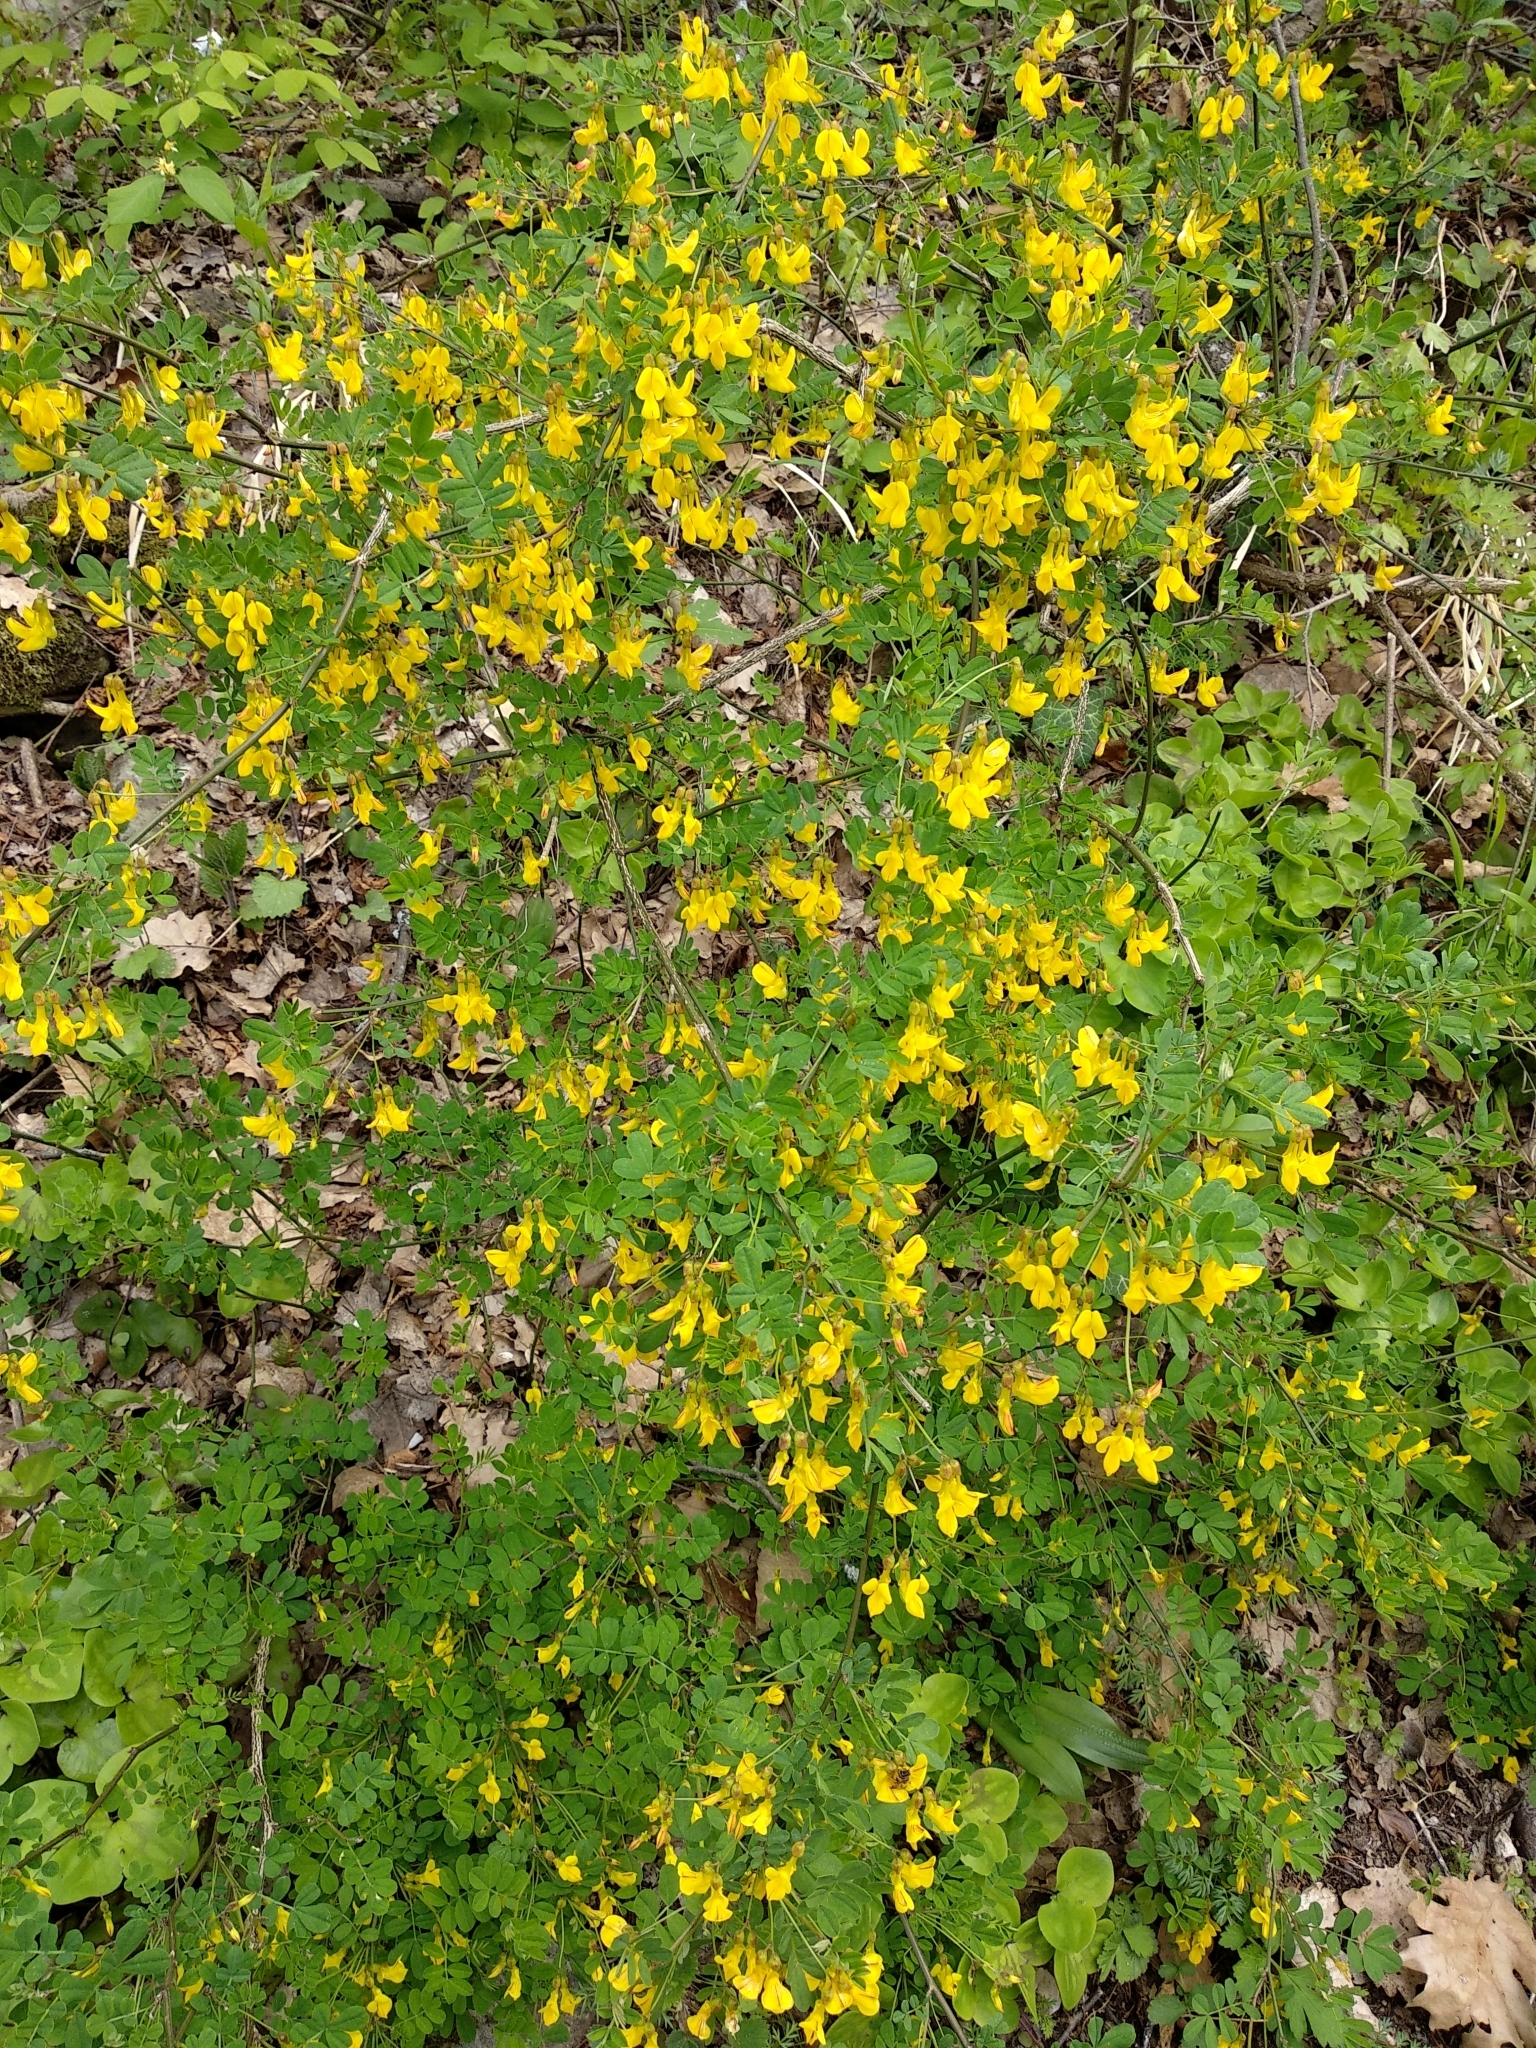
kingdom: Plantae
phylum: Tracheophyta
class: Magnoliopsida
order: Fabales
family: Fabaceae
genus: Hippocrepis
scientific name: Hippocrepis emerus
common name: Scorpion senna
